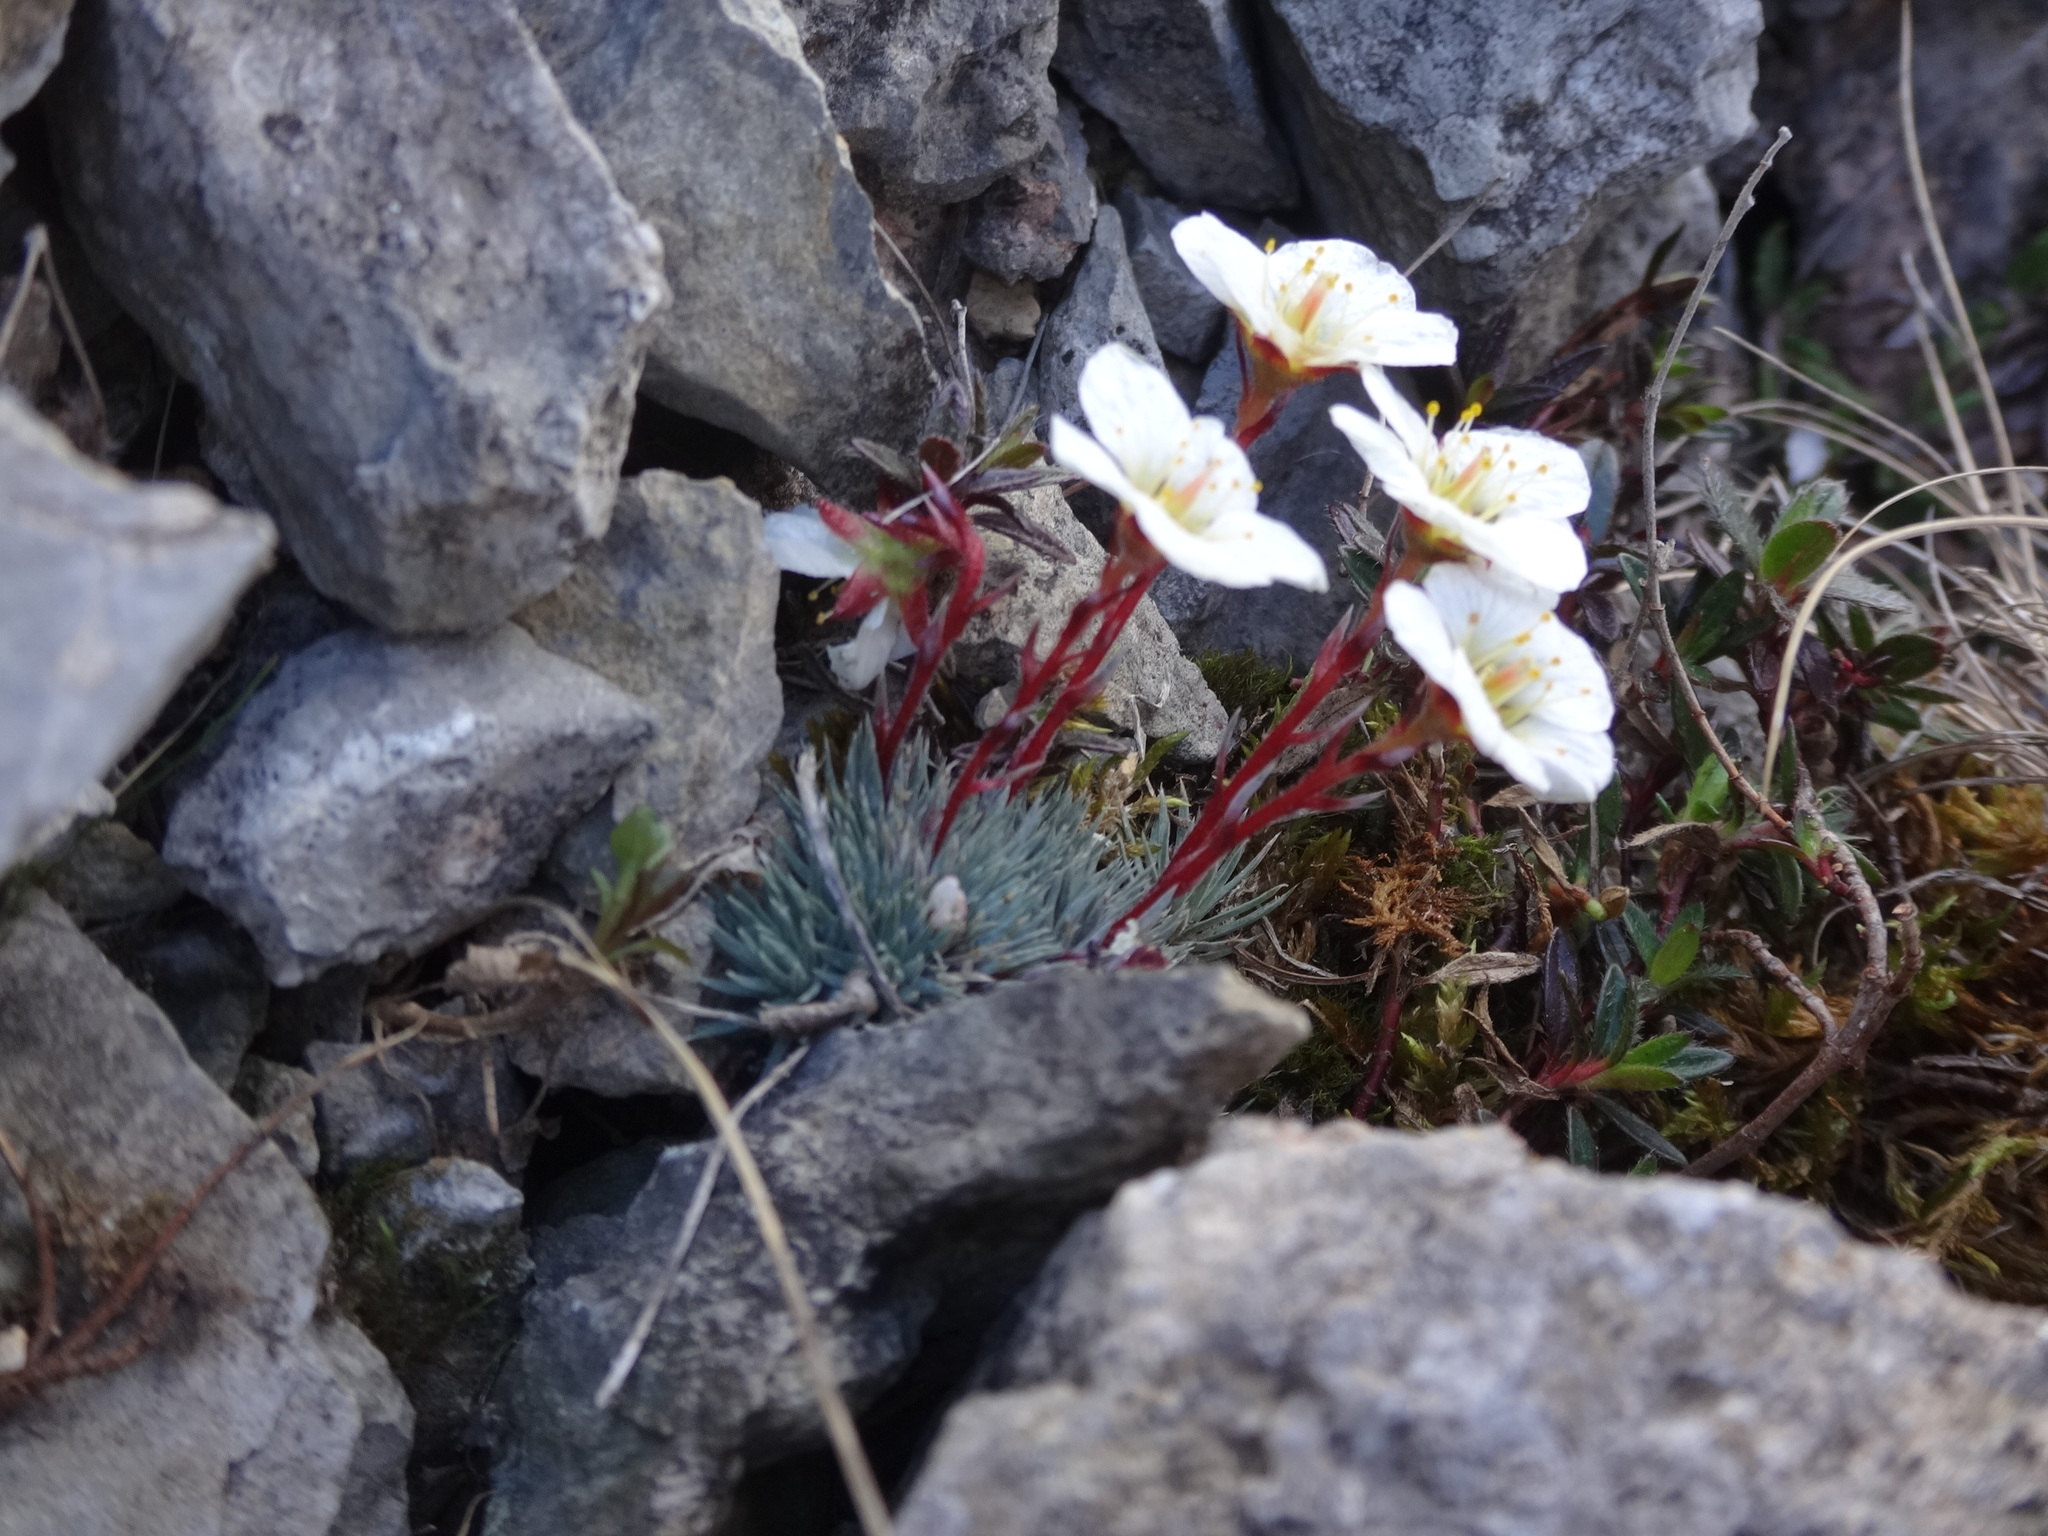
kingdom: Plantae
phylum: Tracheophyta
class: Magnoliopsida
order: Saxifragales
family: Saxifragaceae
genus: Saxifraga
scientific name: Saxifraga burseriana
